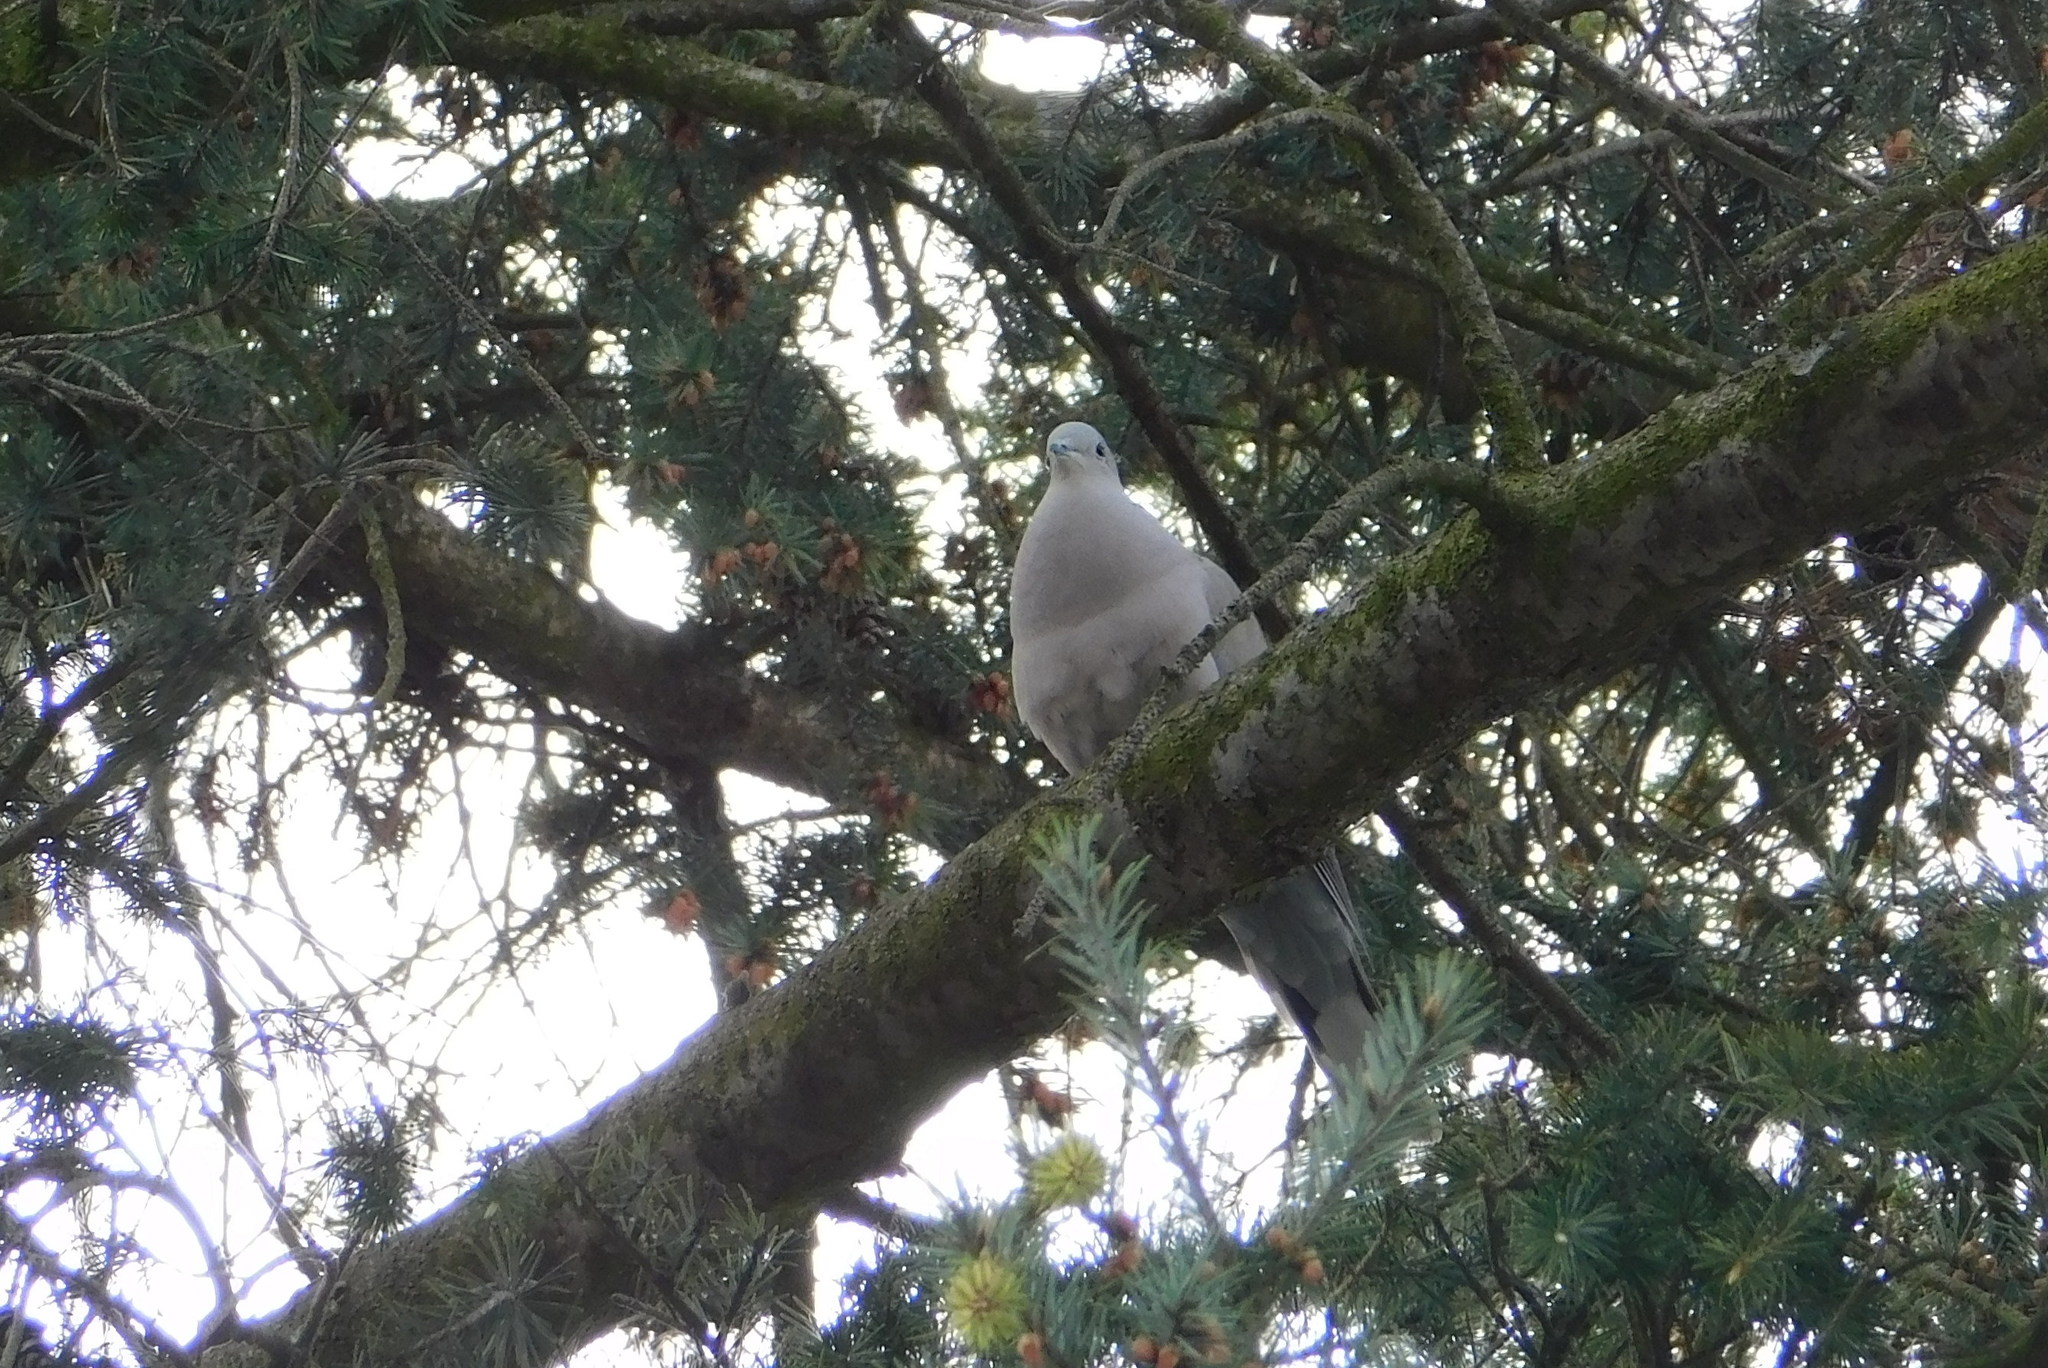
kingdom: Animalia
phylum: Chordata
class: Aves
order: Columbiformes
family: Columbidae
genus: Streptopelia
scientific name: Streptopelia decaocto
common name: Eurasian collared dove
